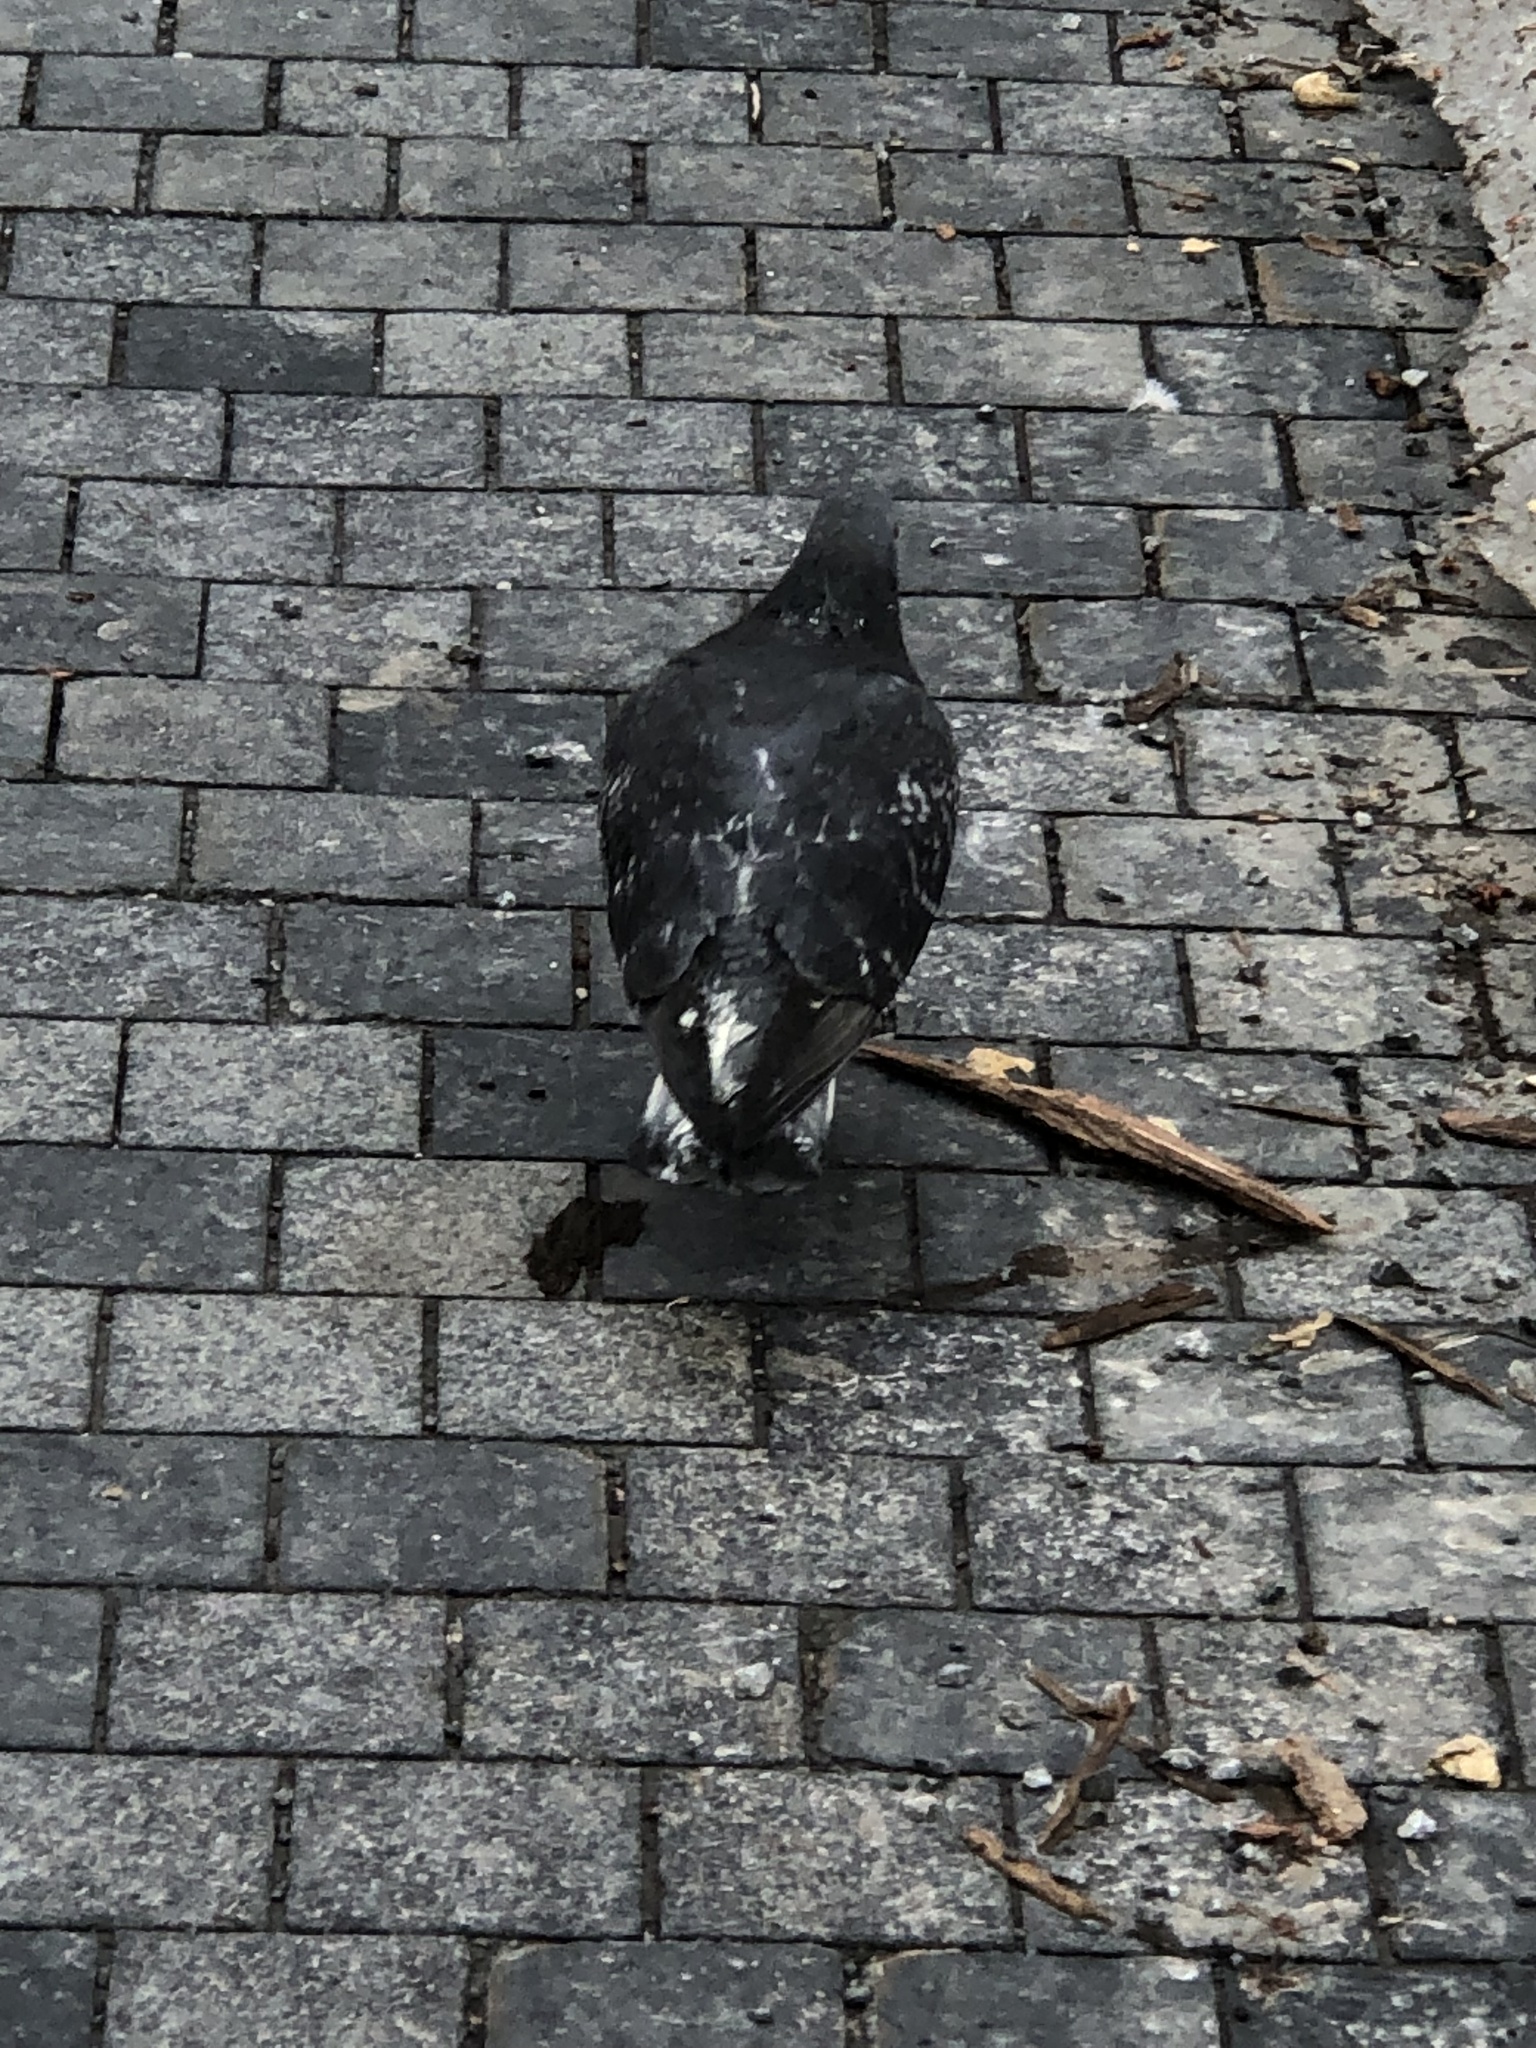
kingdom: Animalia
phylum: Chordata
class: Aves
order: Columbiformes
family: Columbidae
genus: Columba
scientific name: Columba livia
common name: Rock pigeon
